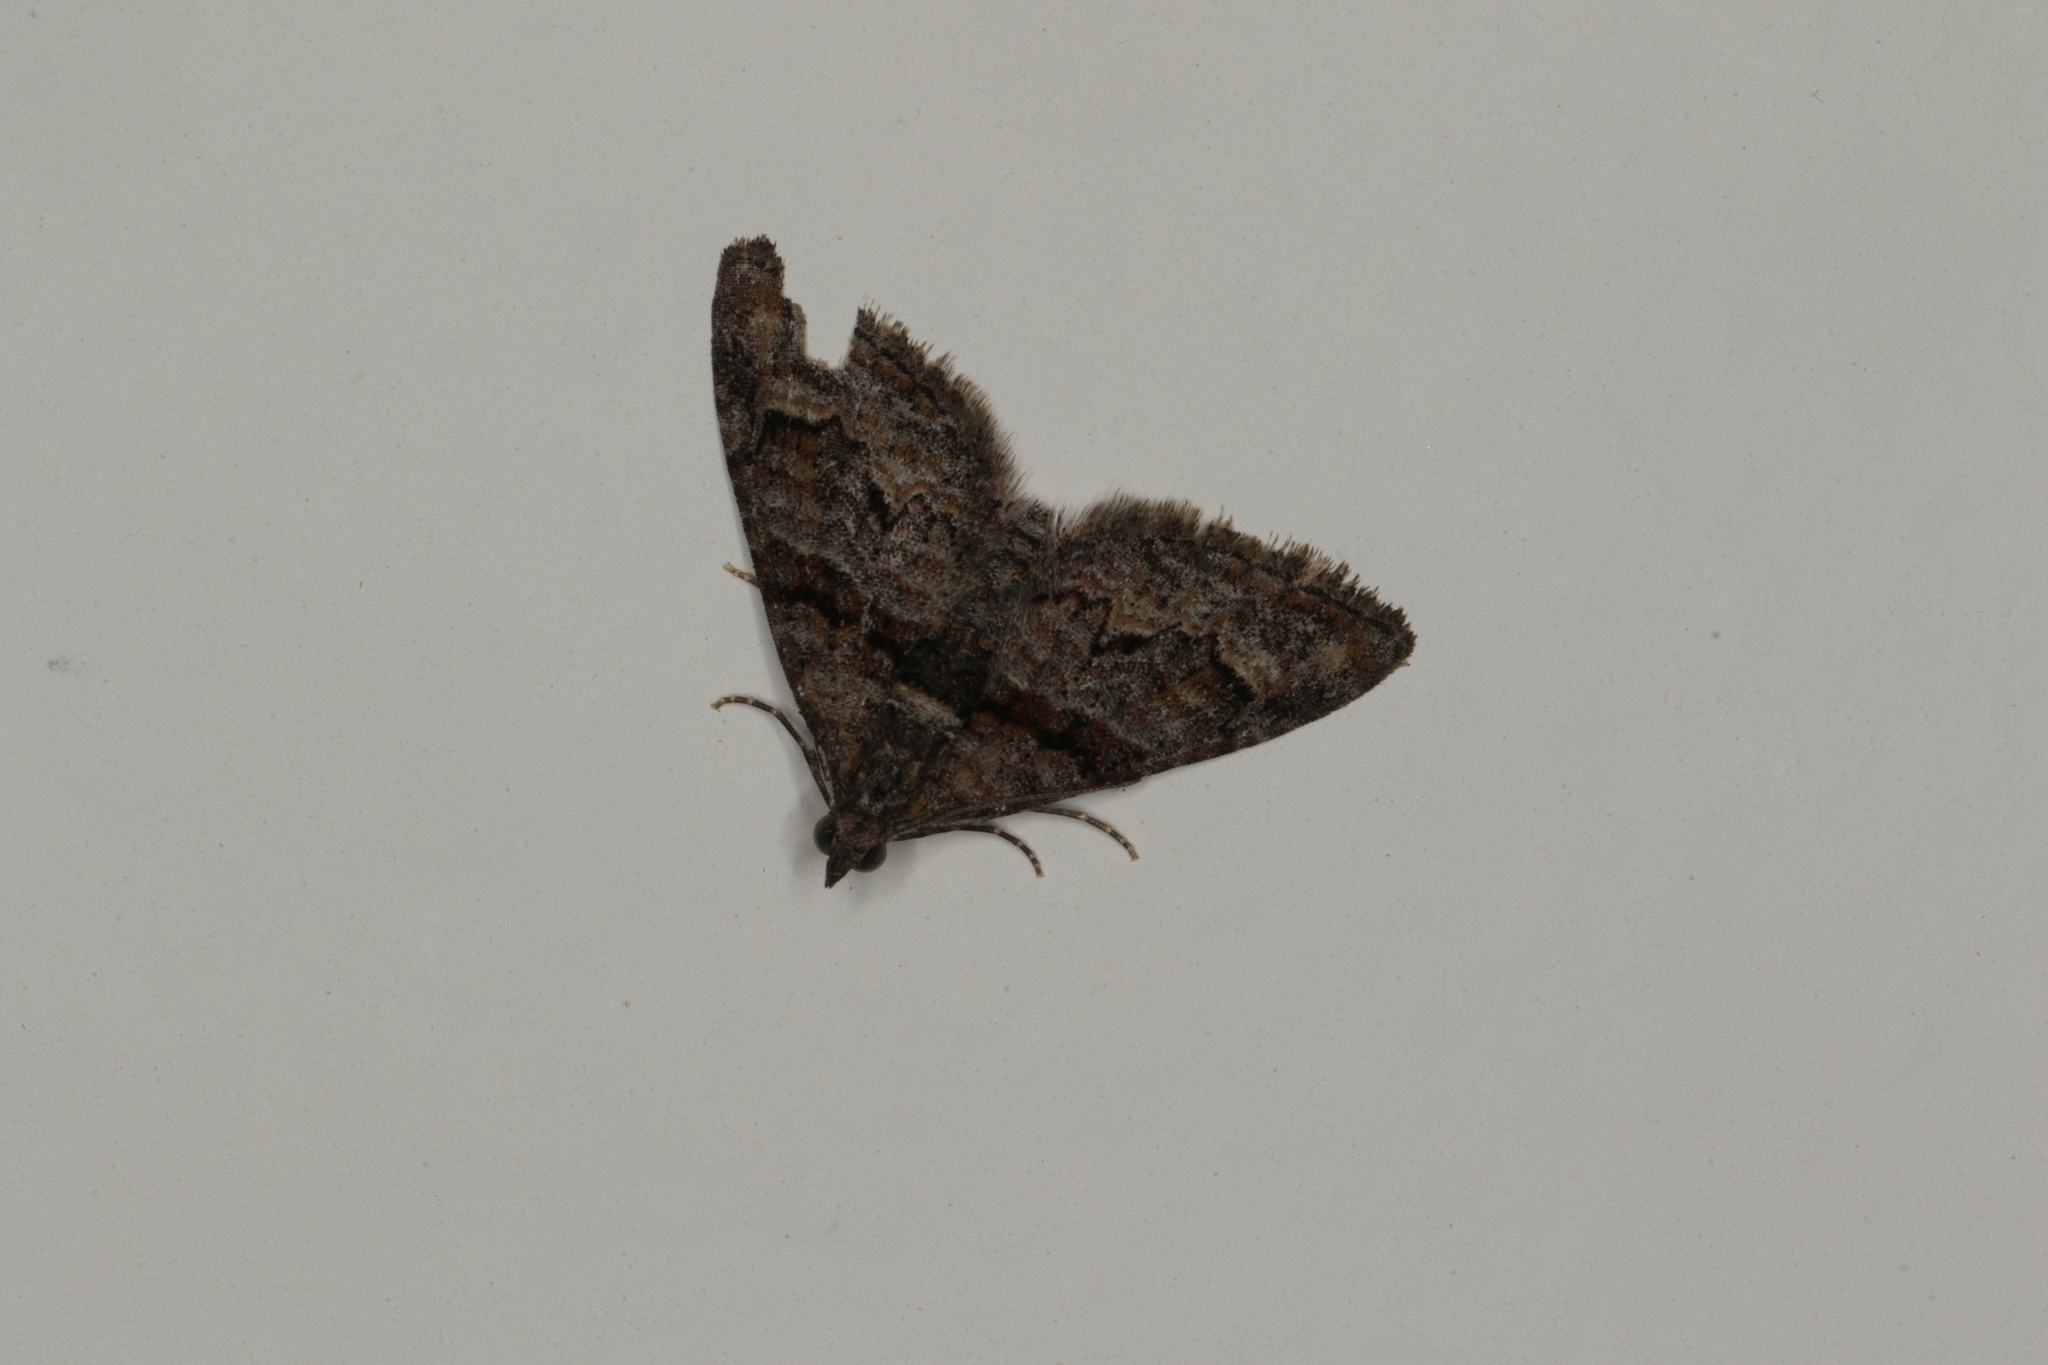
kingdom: Animalia
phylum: Arthropoda
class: Insecta
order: Lepidoptera
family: Geometridae
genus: Phrissogonus
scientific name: Phrissogonus laticostata
